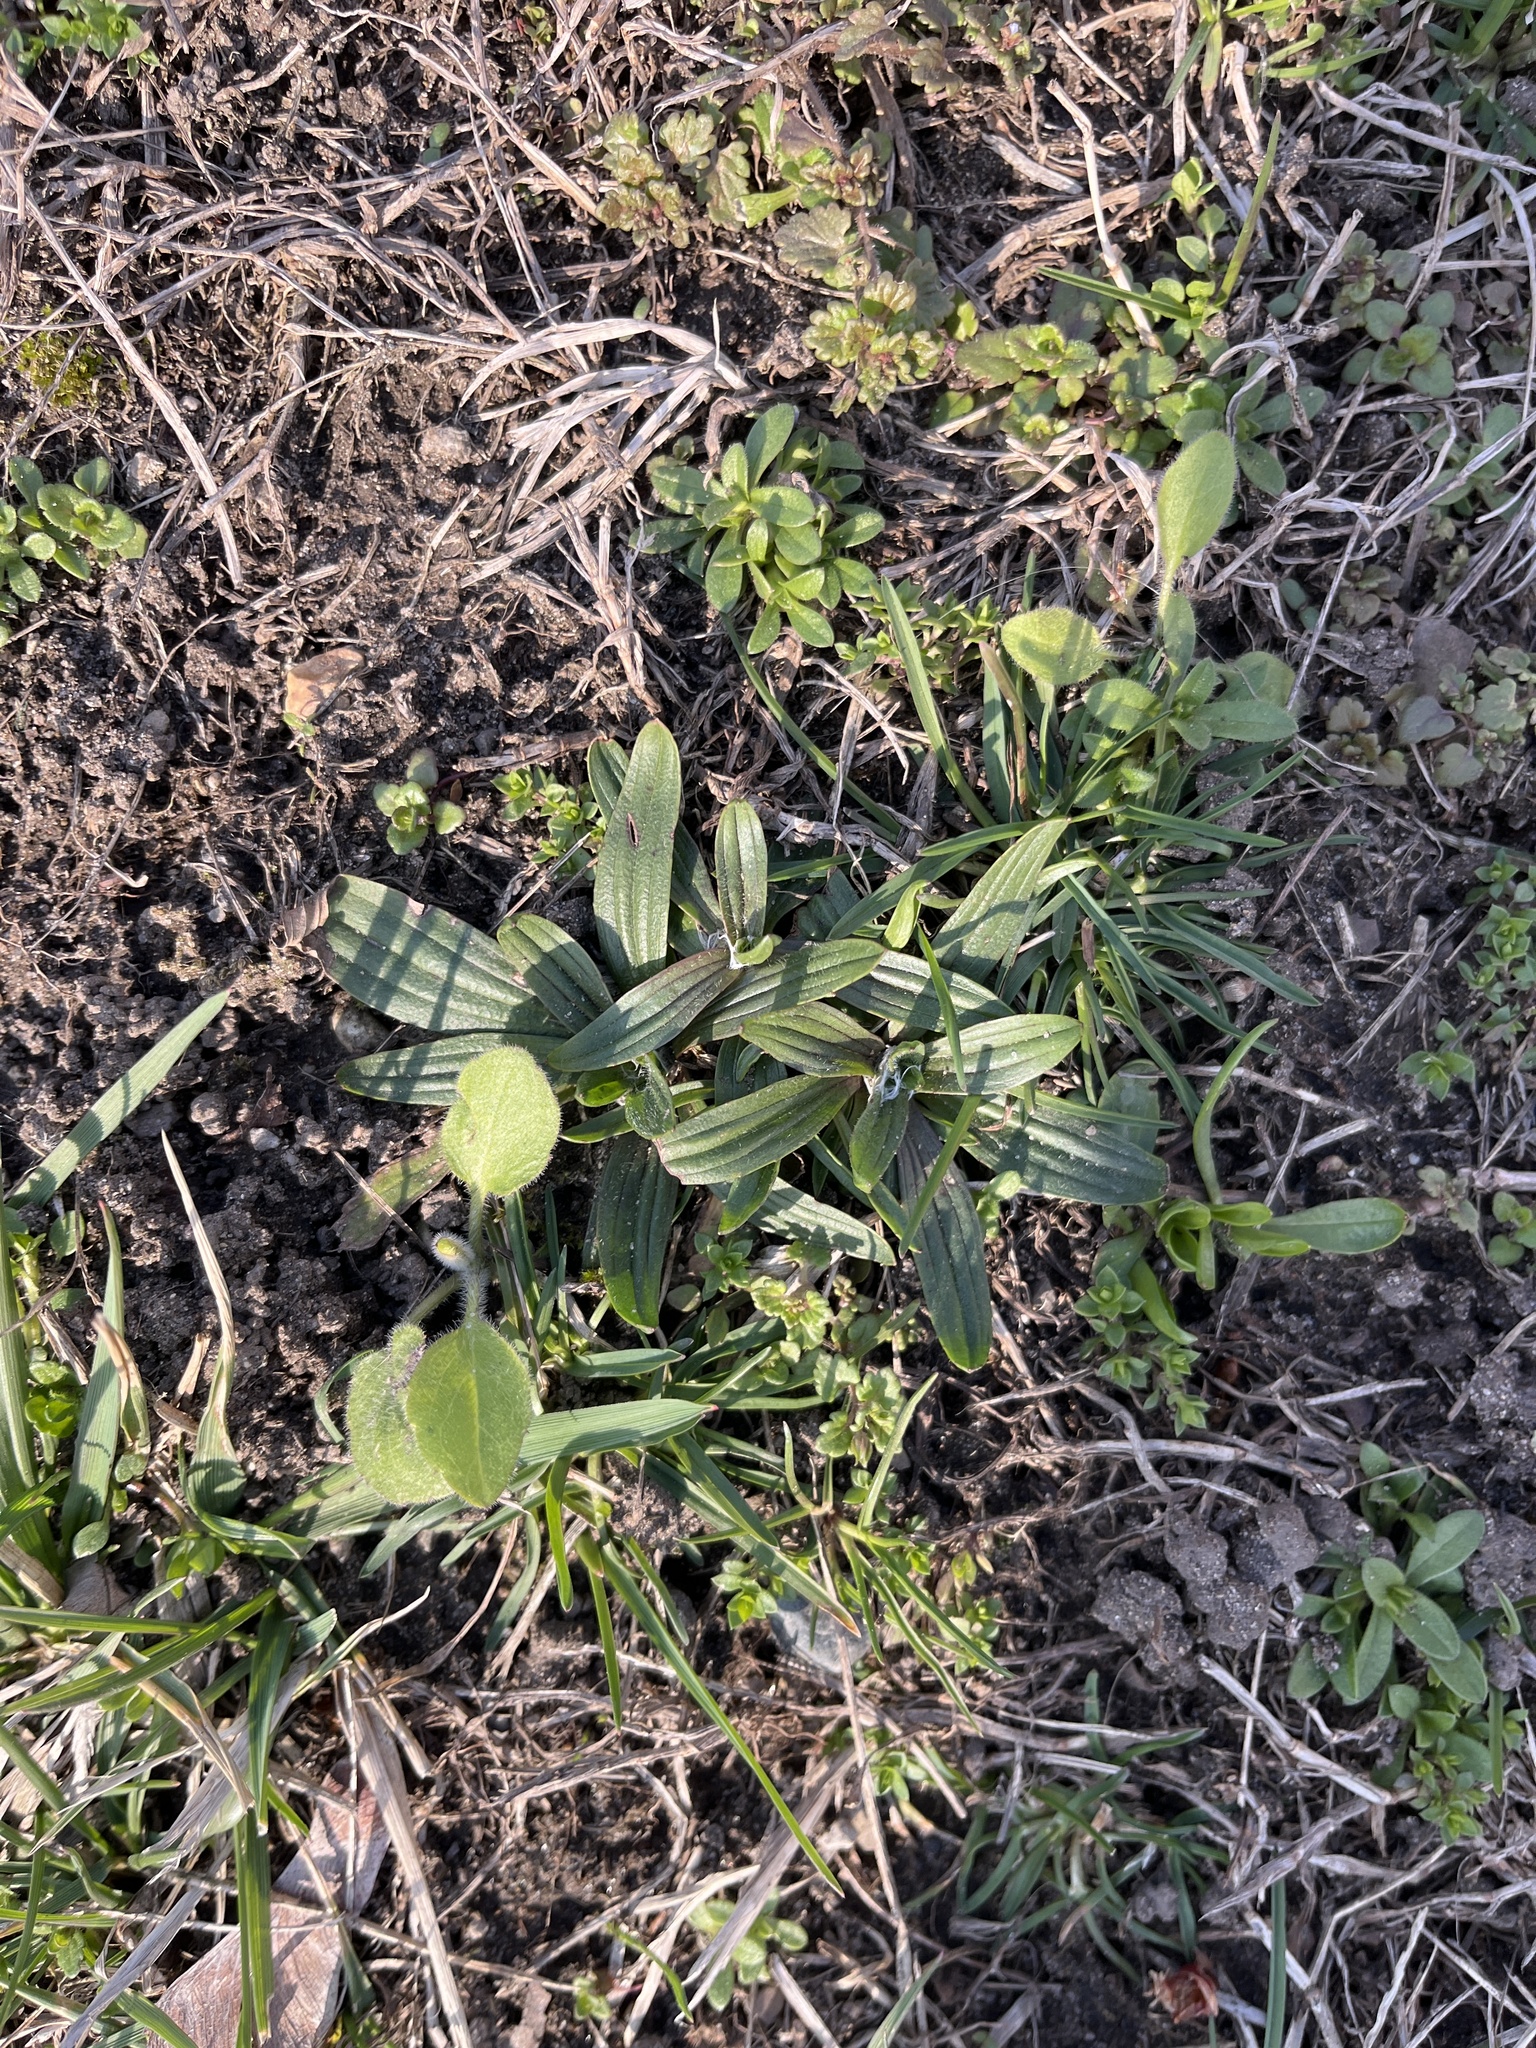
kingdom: Plantae
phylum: Tracheophyta
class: Magnoliopsida
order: Lamiales
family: Plantaginaceae
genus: Plantago
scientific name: Plantago lanceolata
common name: Ribwort plantain
